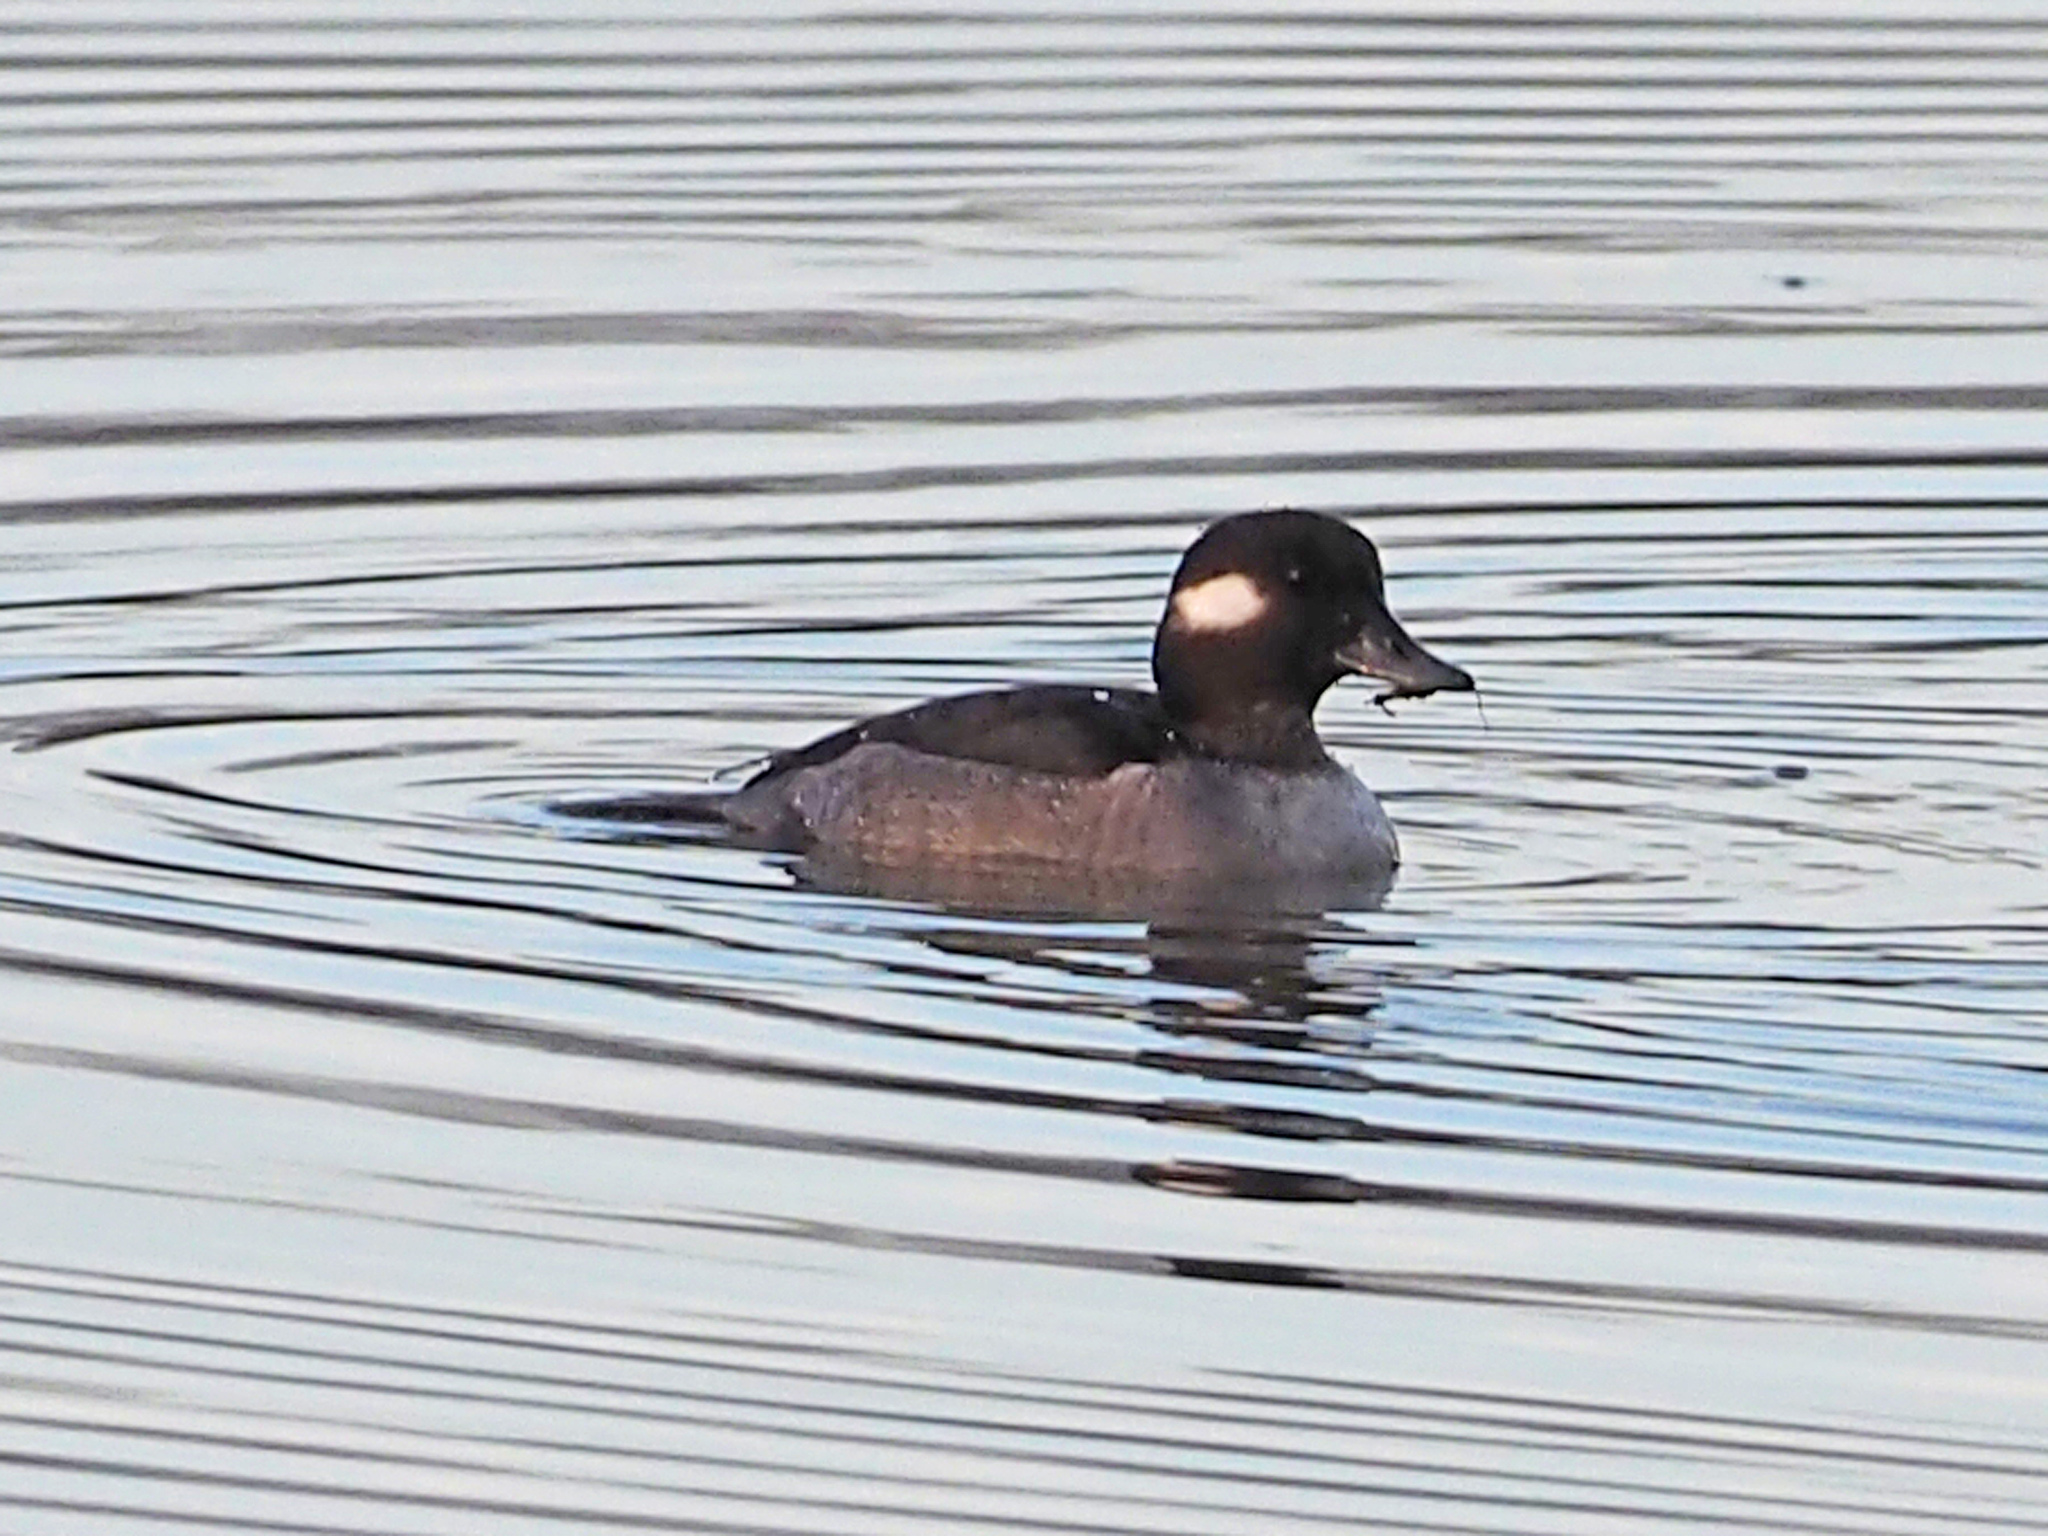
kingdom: Animalia
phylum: Chordata
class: Aves
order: Anseriformes
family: Anatidae
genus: Bucephala
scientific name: Bucephala albeola
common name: Bufflehead
